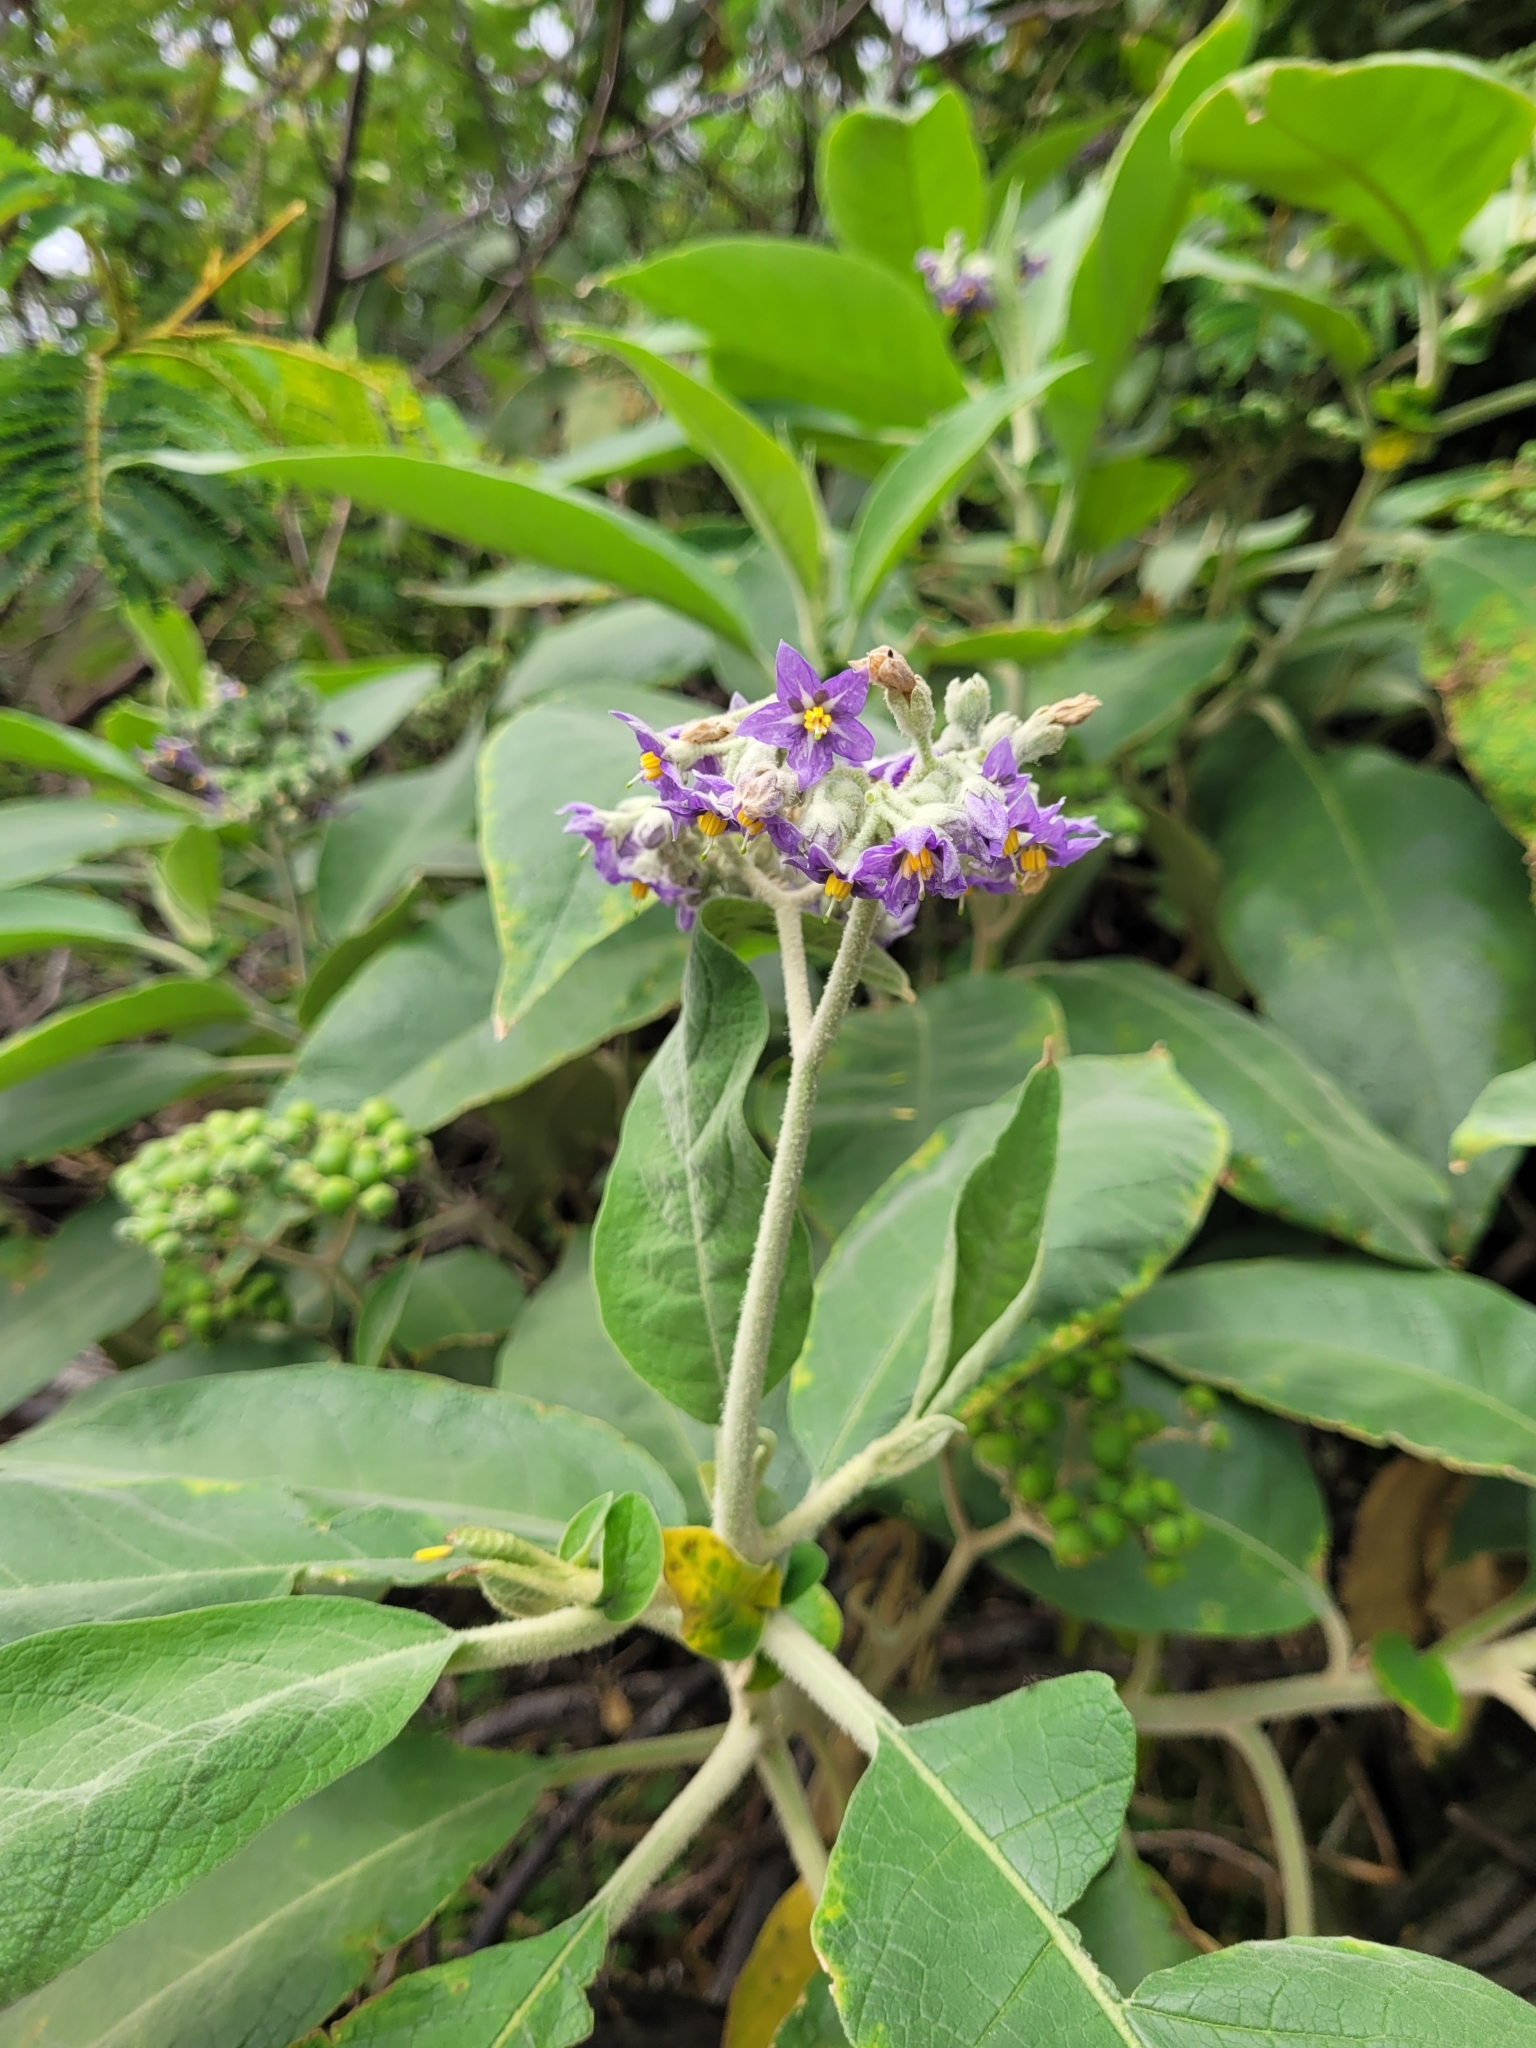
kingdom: Plantae
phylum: Tracheophyta
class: Magnoliopsida
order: Solanales
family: Solanaceae
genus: Solanum
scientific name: Solanum mauritianum
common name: Earleaf nightshade
